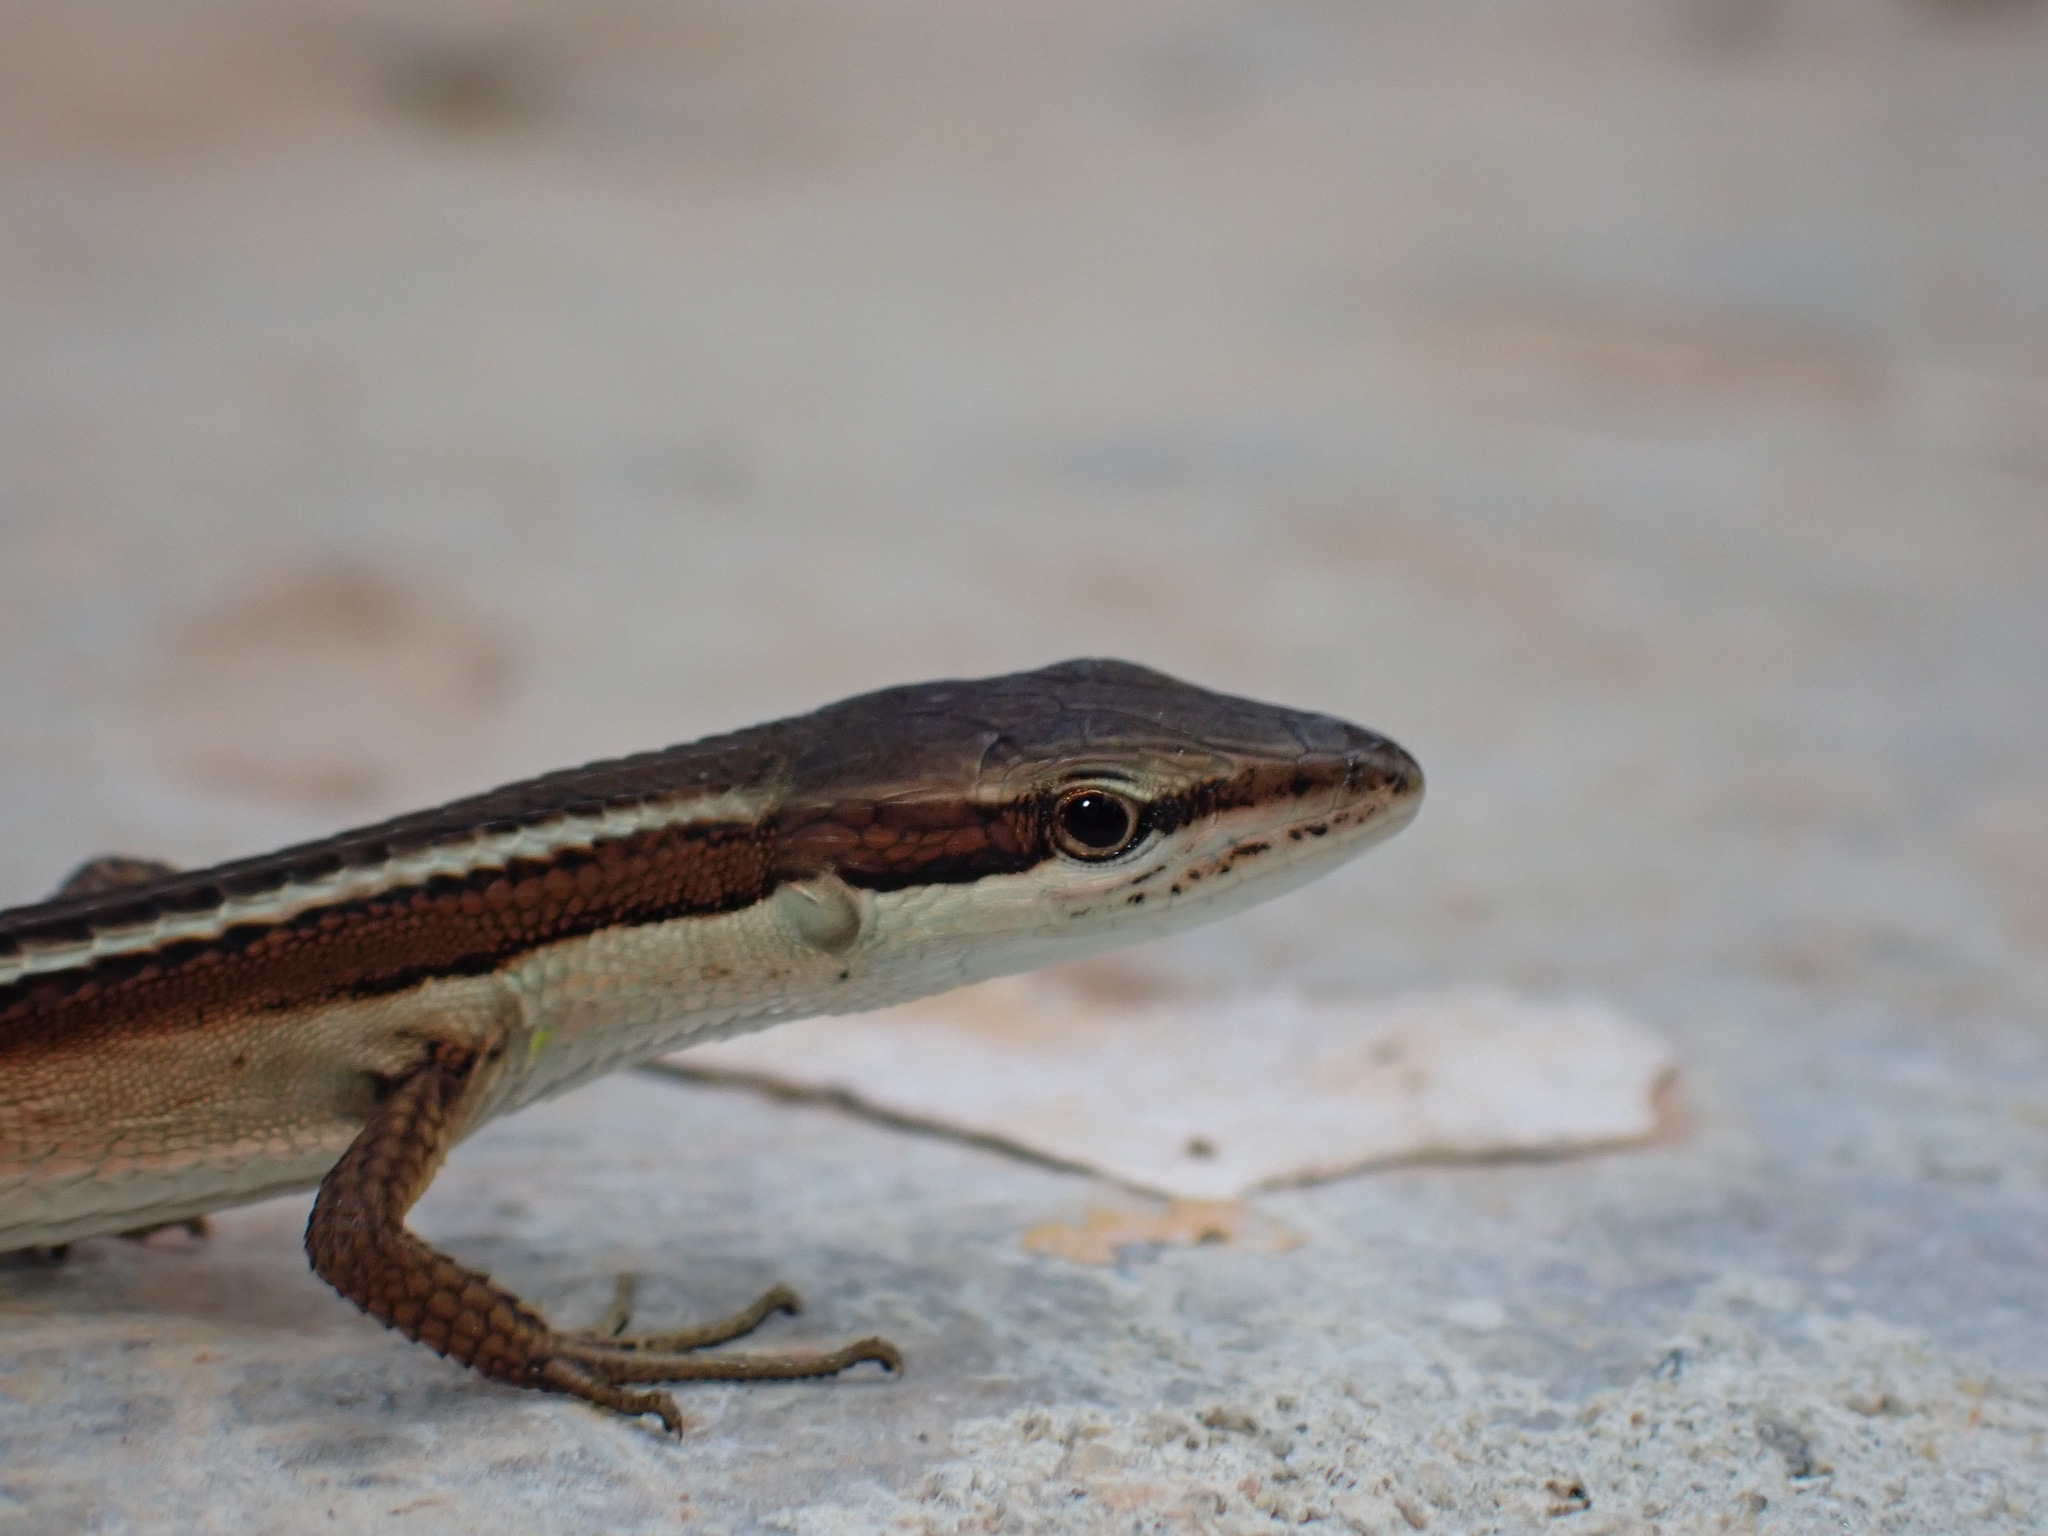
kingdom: Animalia
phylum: Chordata
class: Squamata
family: Lacertidae
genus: Takydromus
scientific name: Takydromus sexlineatus
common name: Asian grass lizard
